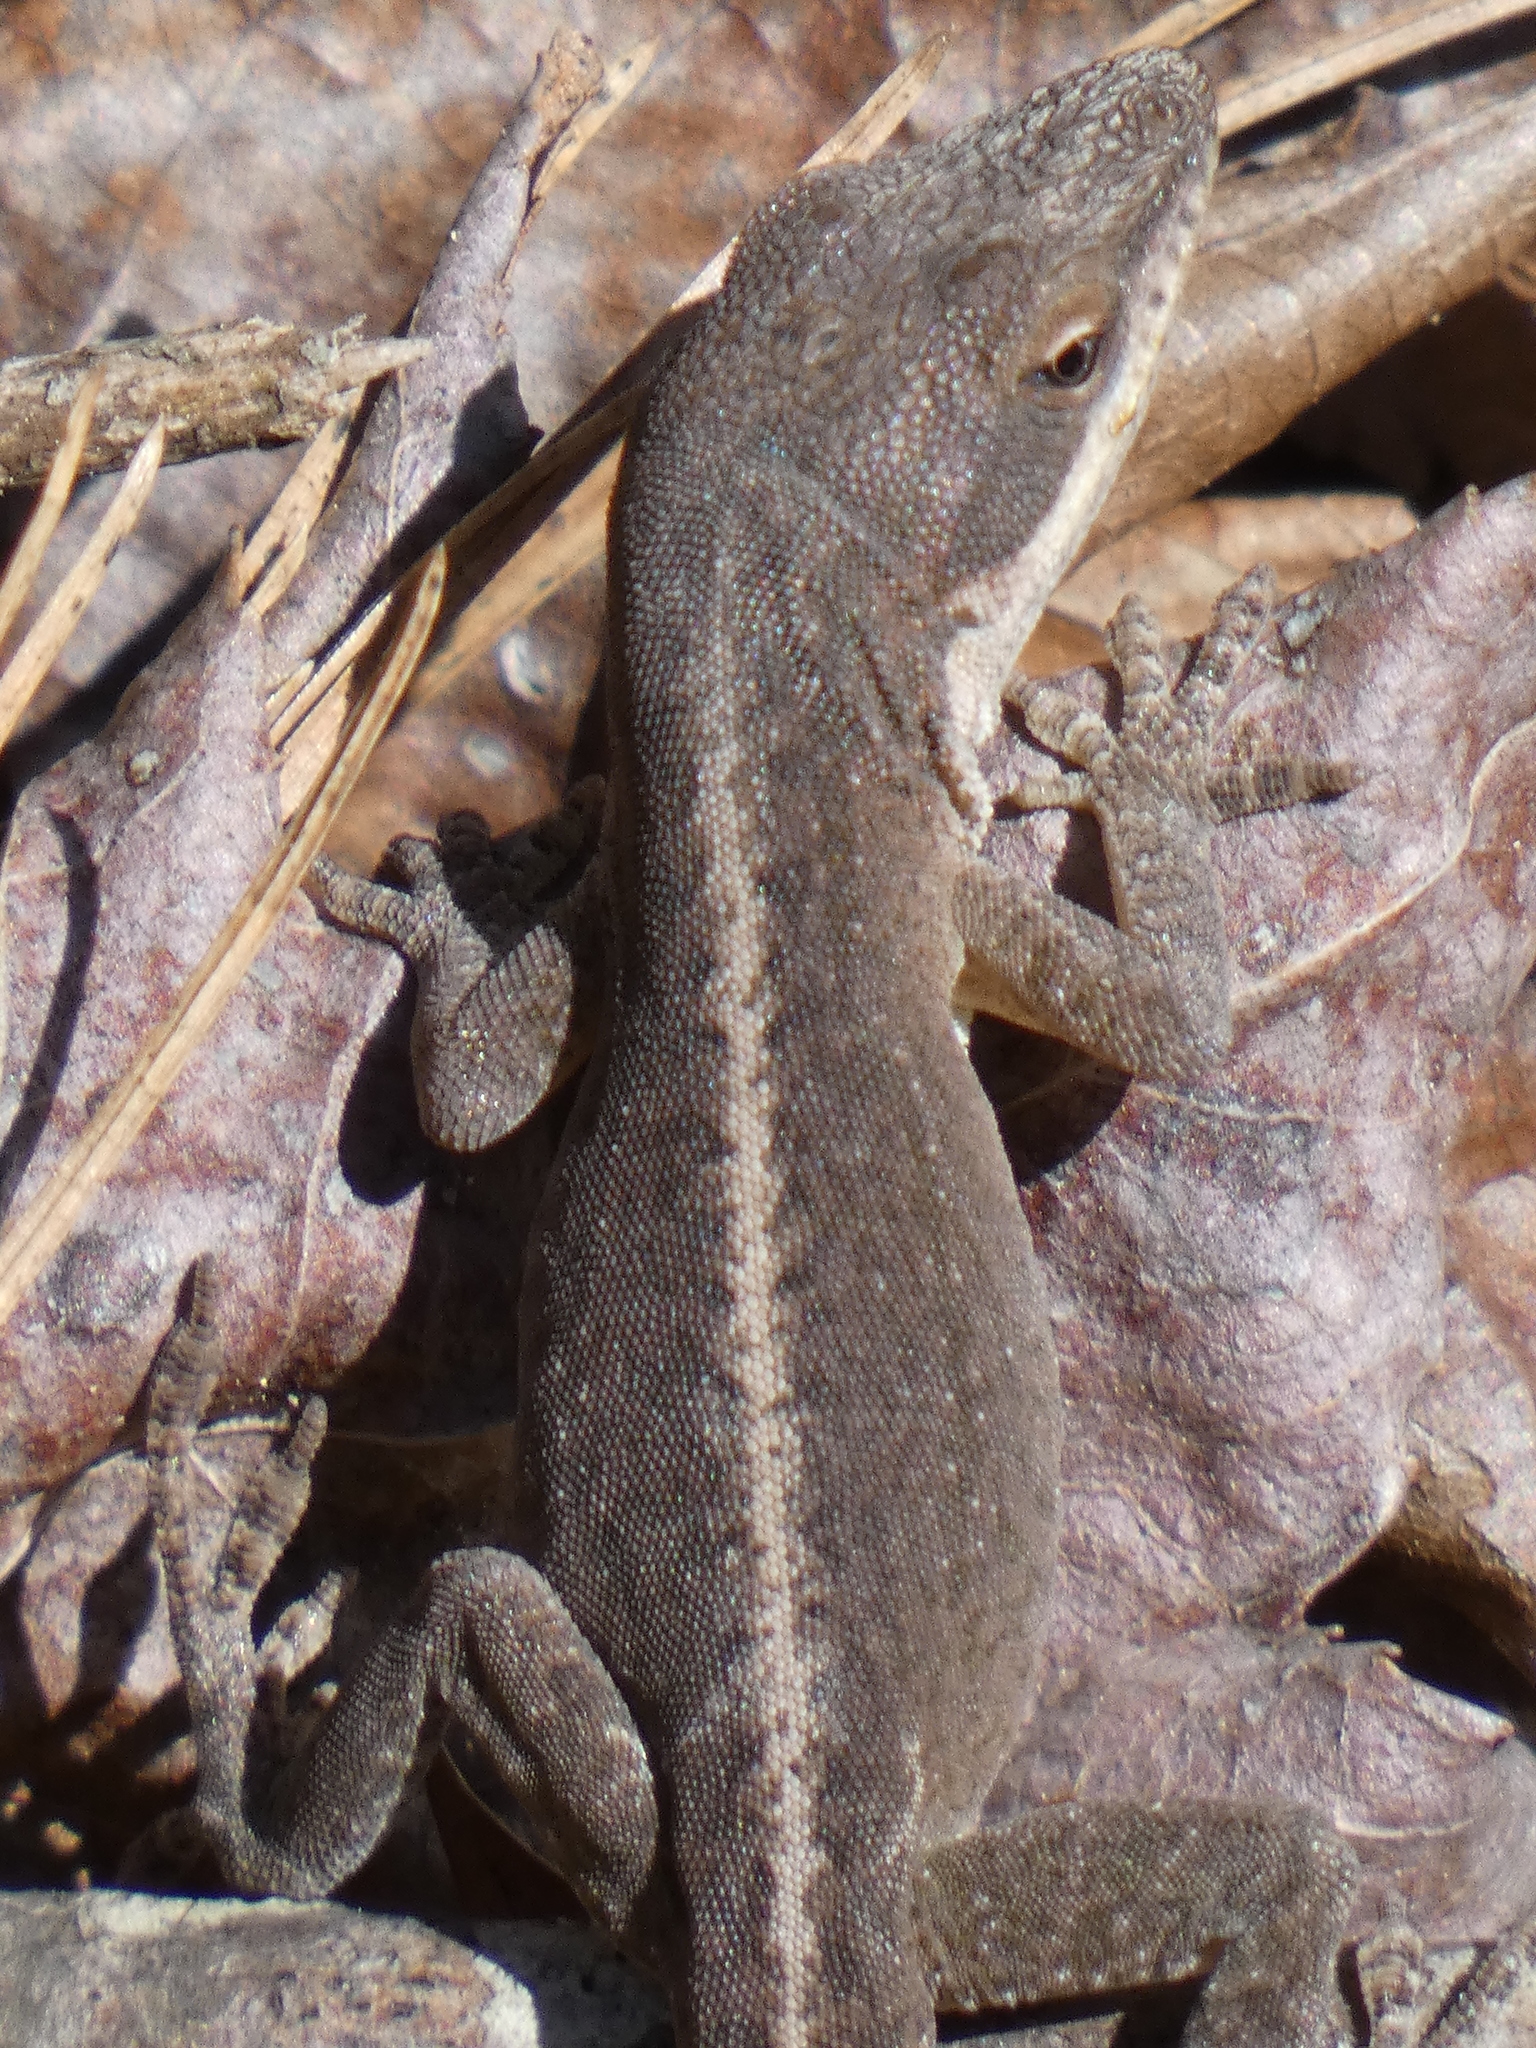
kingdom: Animalia
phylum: Chordata
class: Squamata
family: Dactyloidae
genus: Anolis
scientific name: Anolis carolinensis
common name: Green anole
